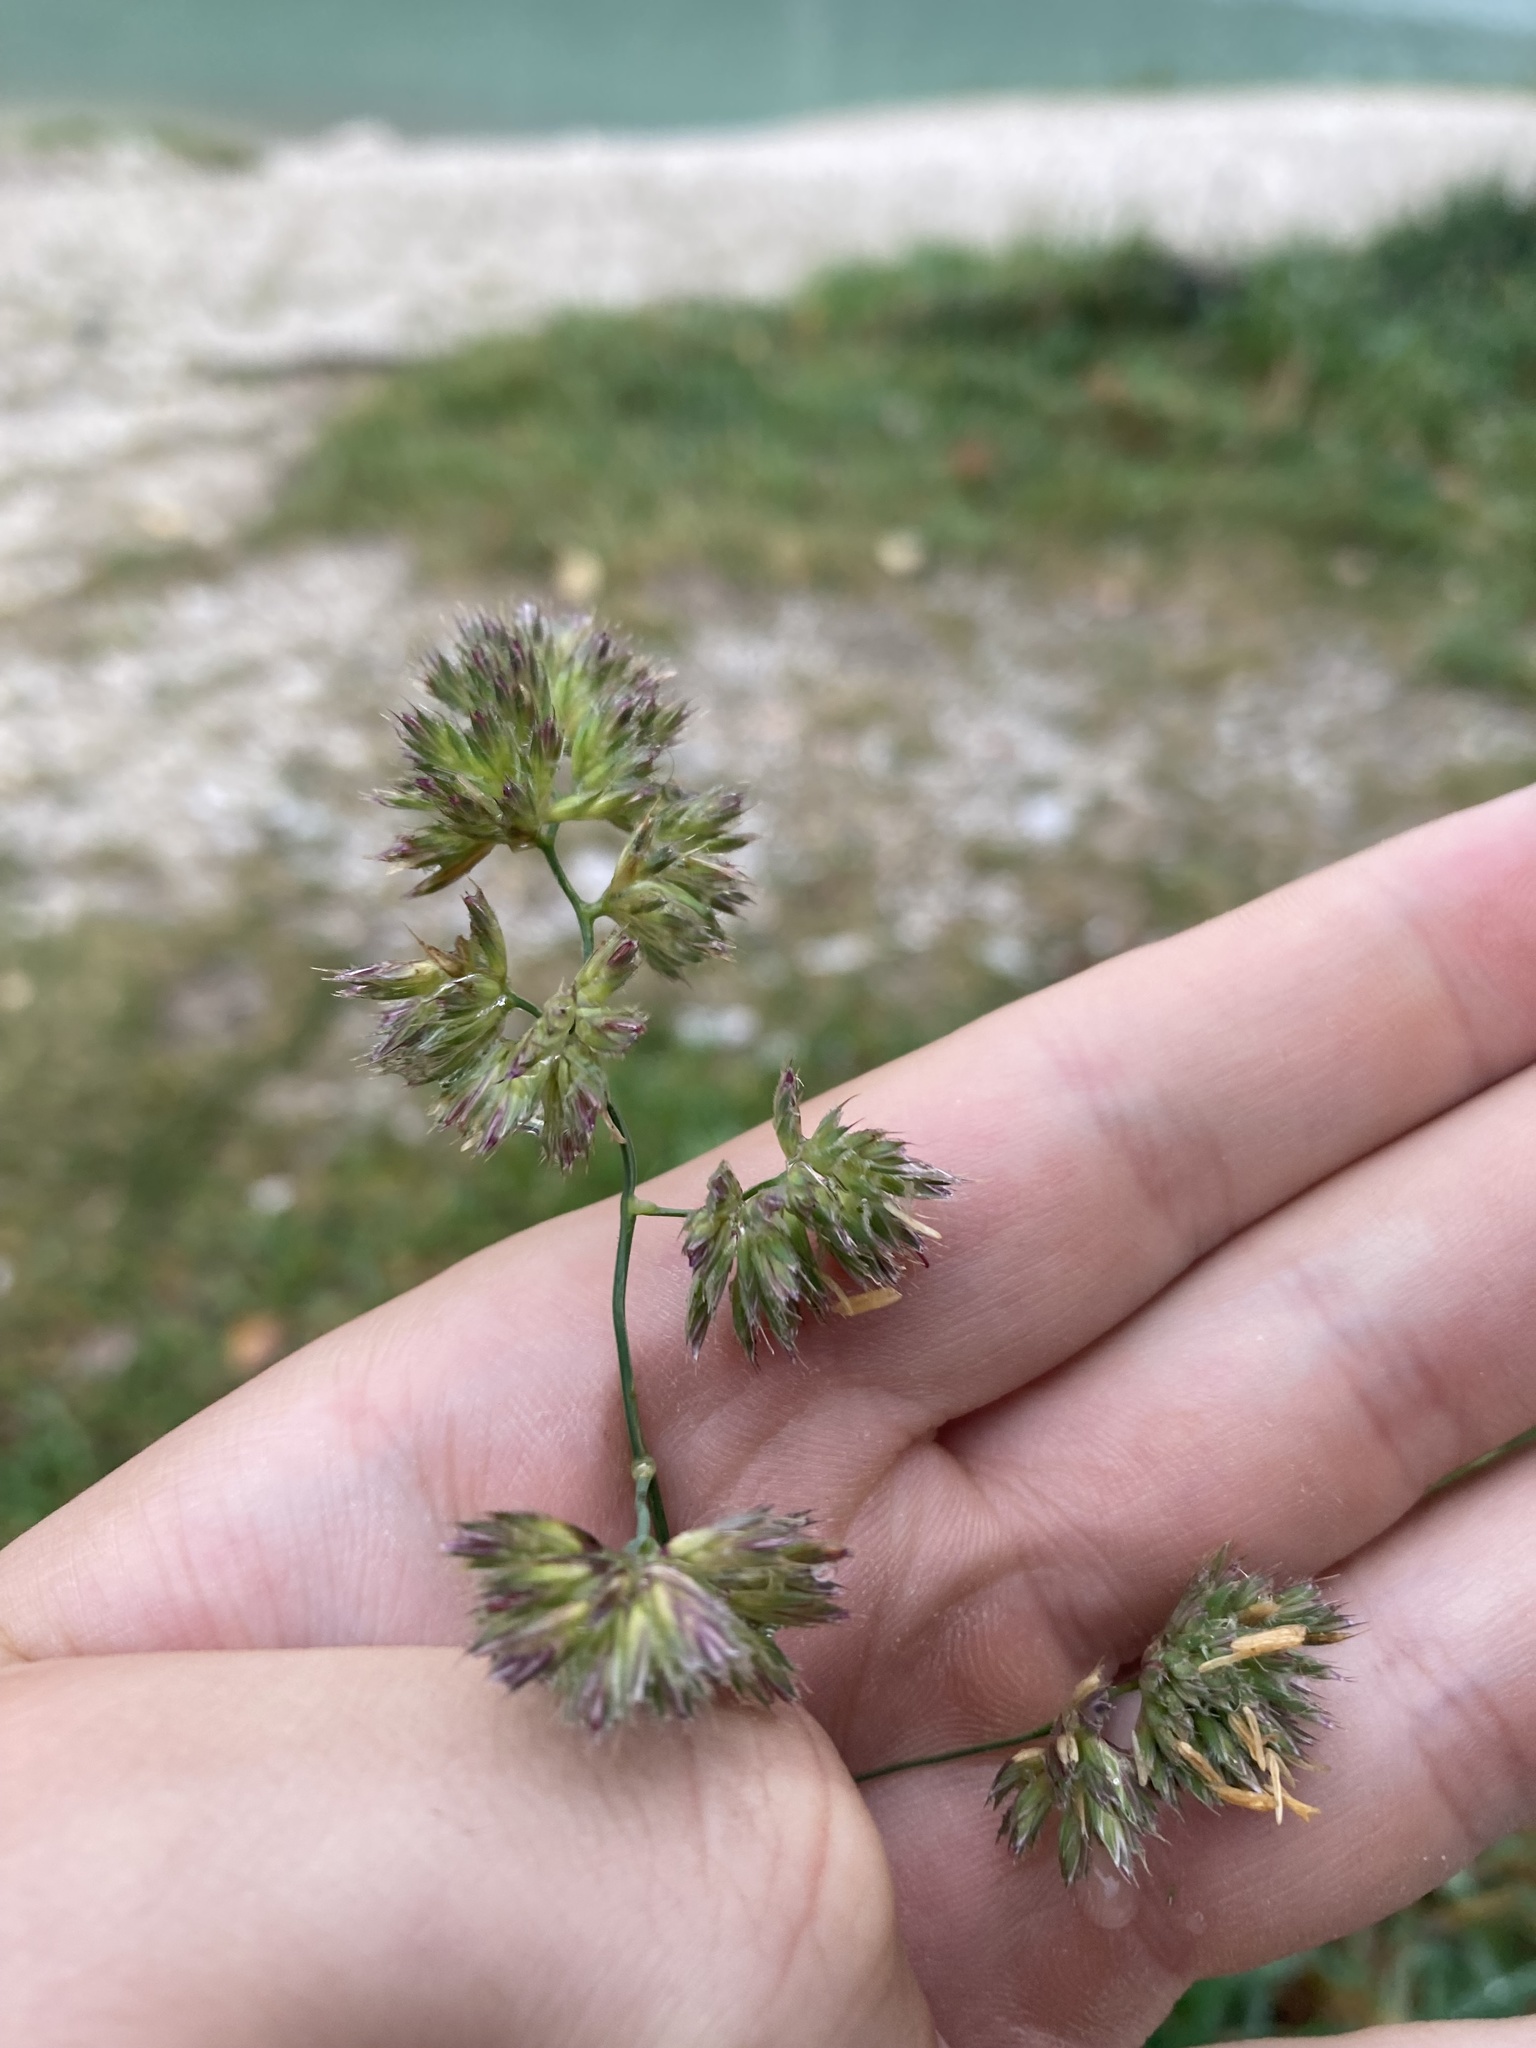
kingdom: Plantae
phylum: Tracheophyta
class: Liliopsida
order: Poales
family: Poaceae
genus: Dactylis
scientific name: Dactylis glomerata
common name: Orchardgrass
